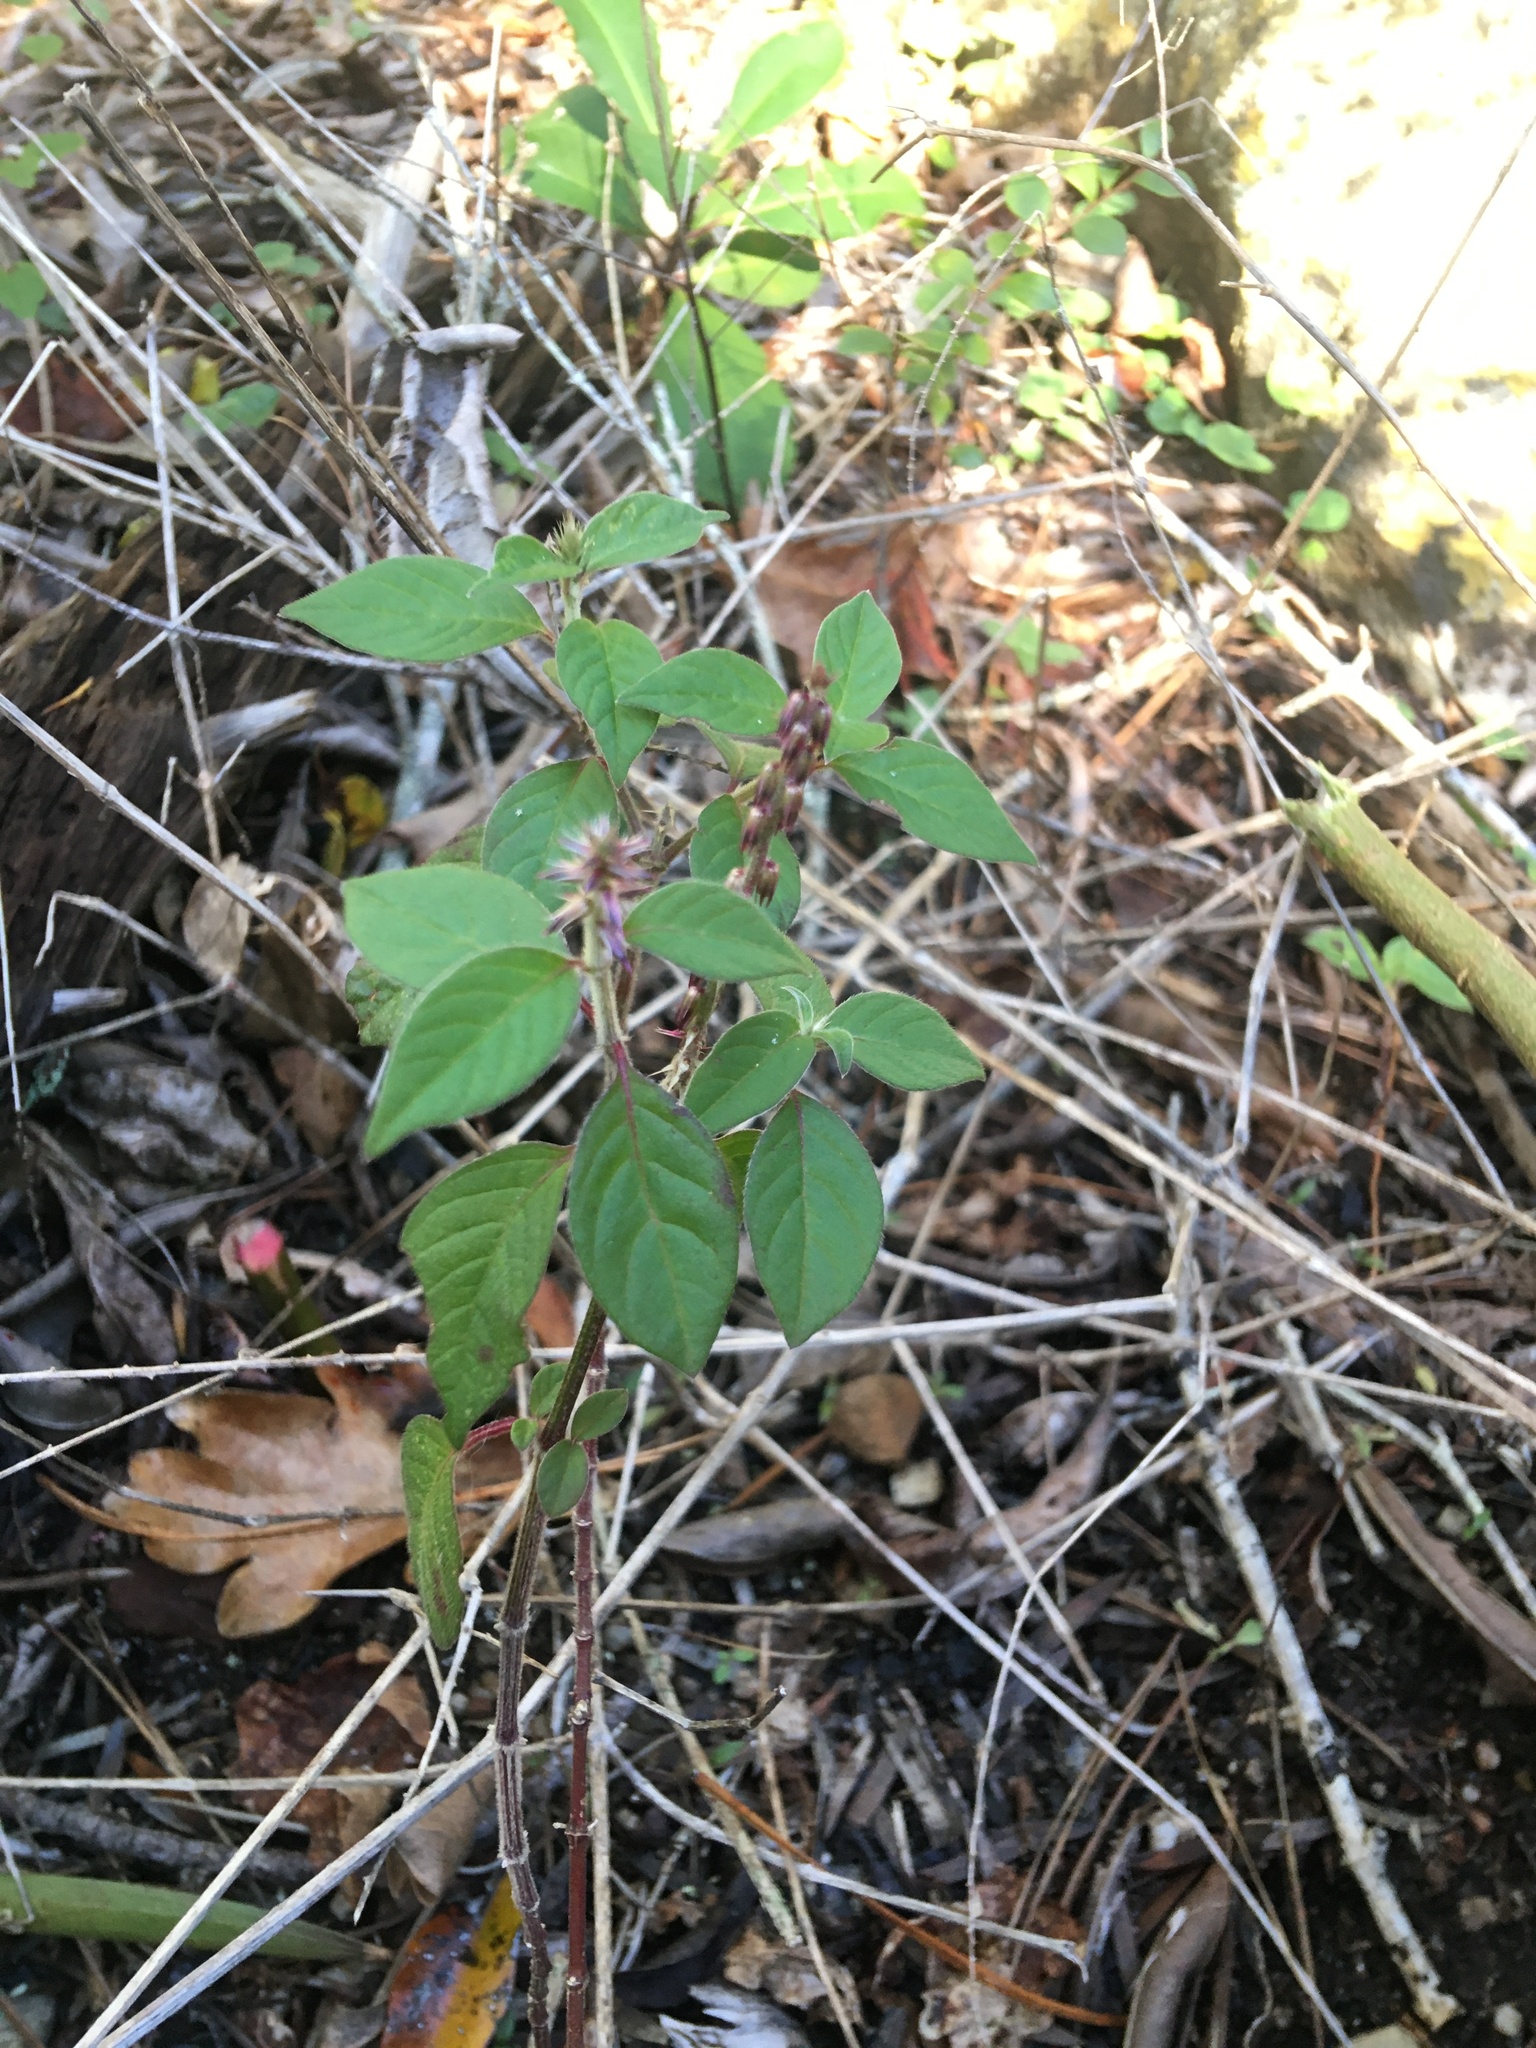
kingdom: Plantae
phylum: Tracheophyta
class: Magnoliopsida
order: Caryophyllales
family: Amaranthaceae
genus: Achyranthes
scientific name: Achyranthes aspera
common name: Devil's horsewhip
